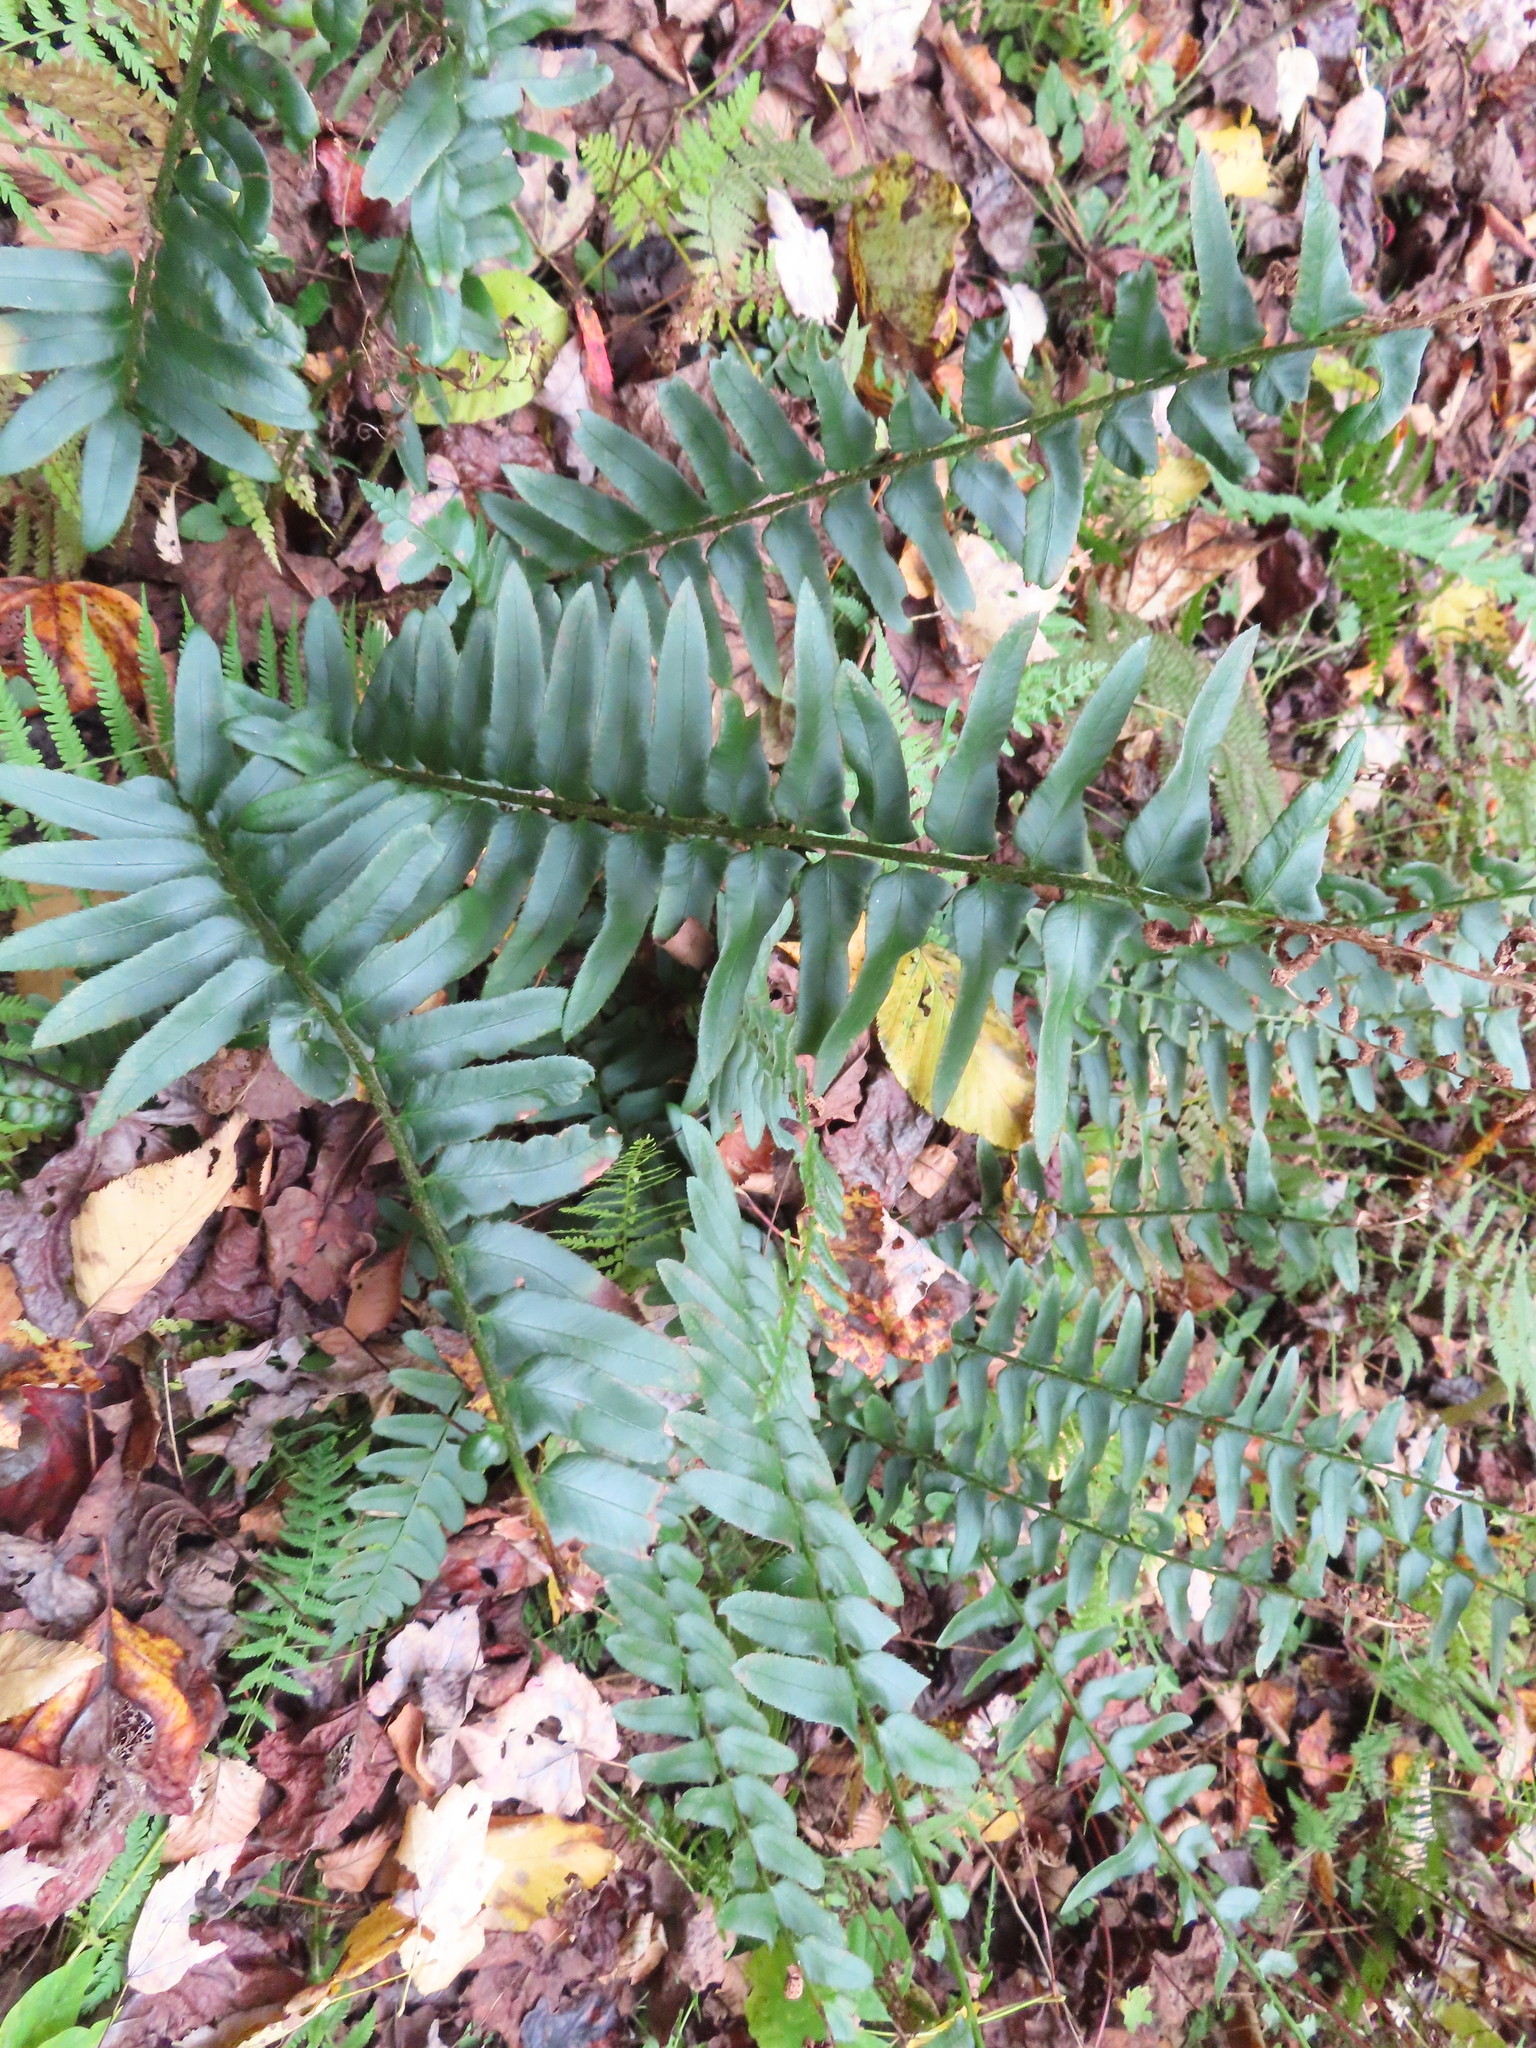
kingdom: Plantae
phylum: Tracheophyta
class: Polypodiopsida
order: Polypodiales
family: Dryopteridaceae
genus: Polystichum
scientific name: Polystichum acrostichoides
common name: Christmas fern
